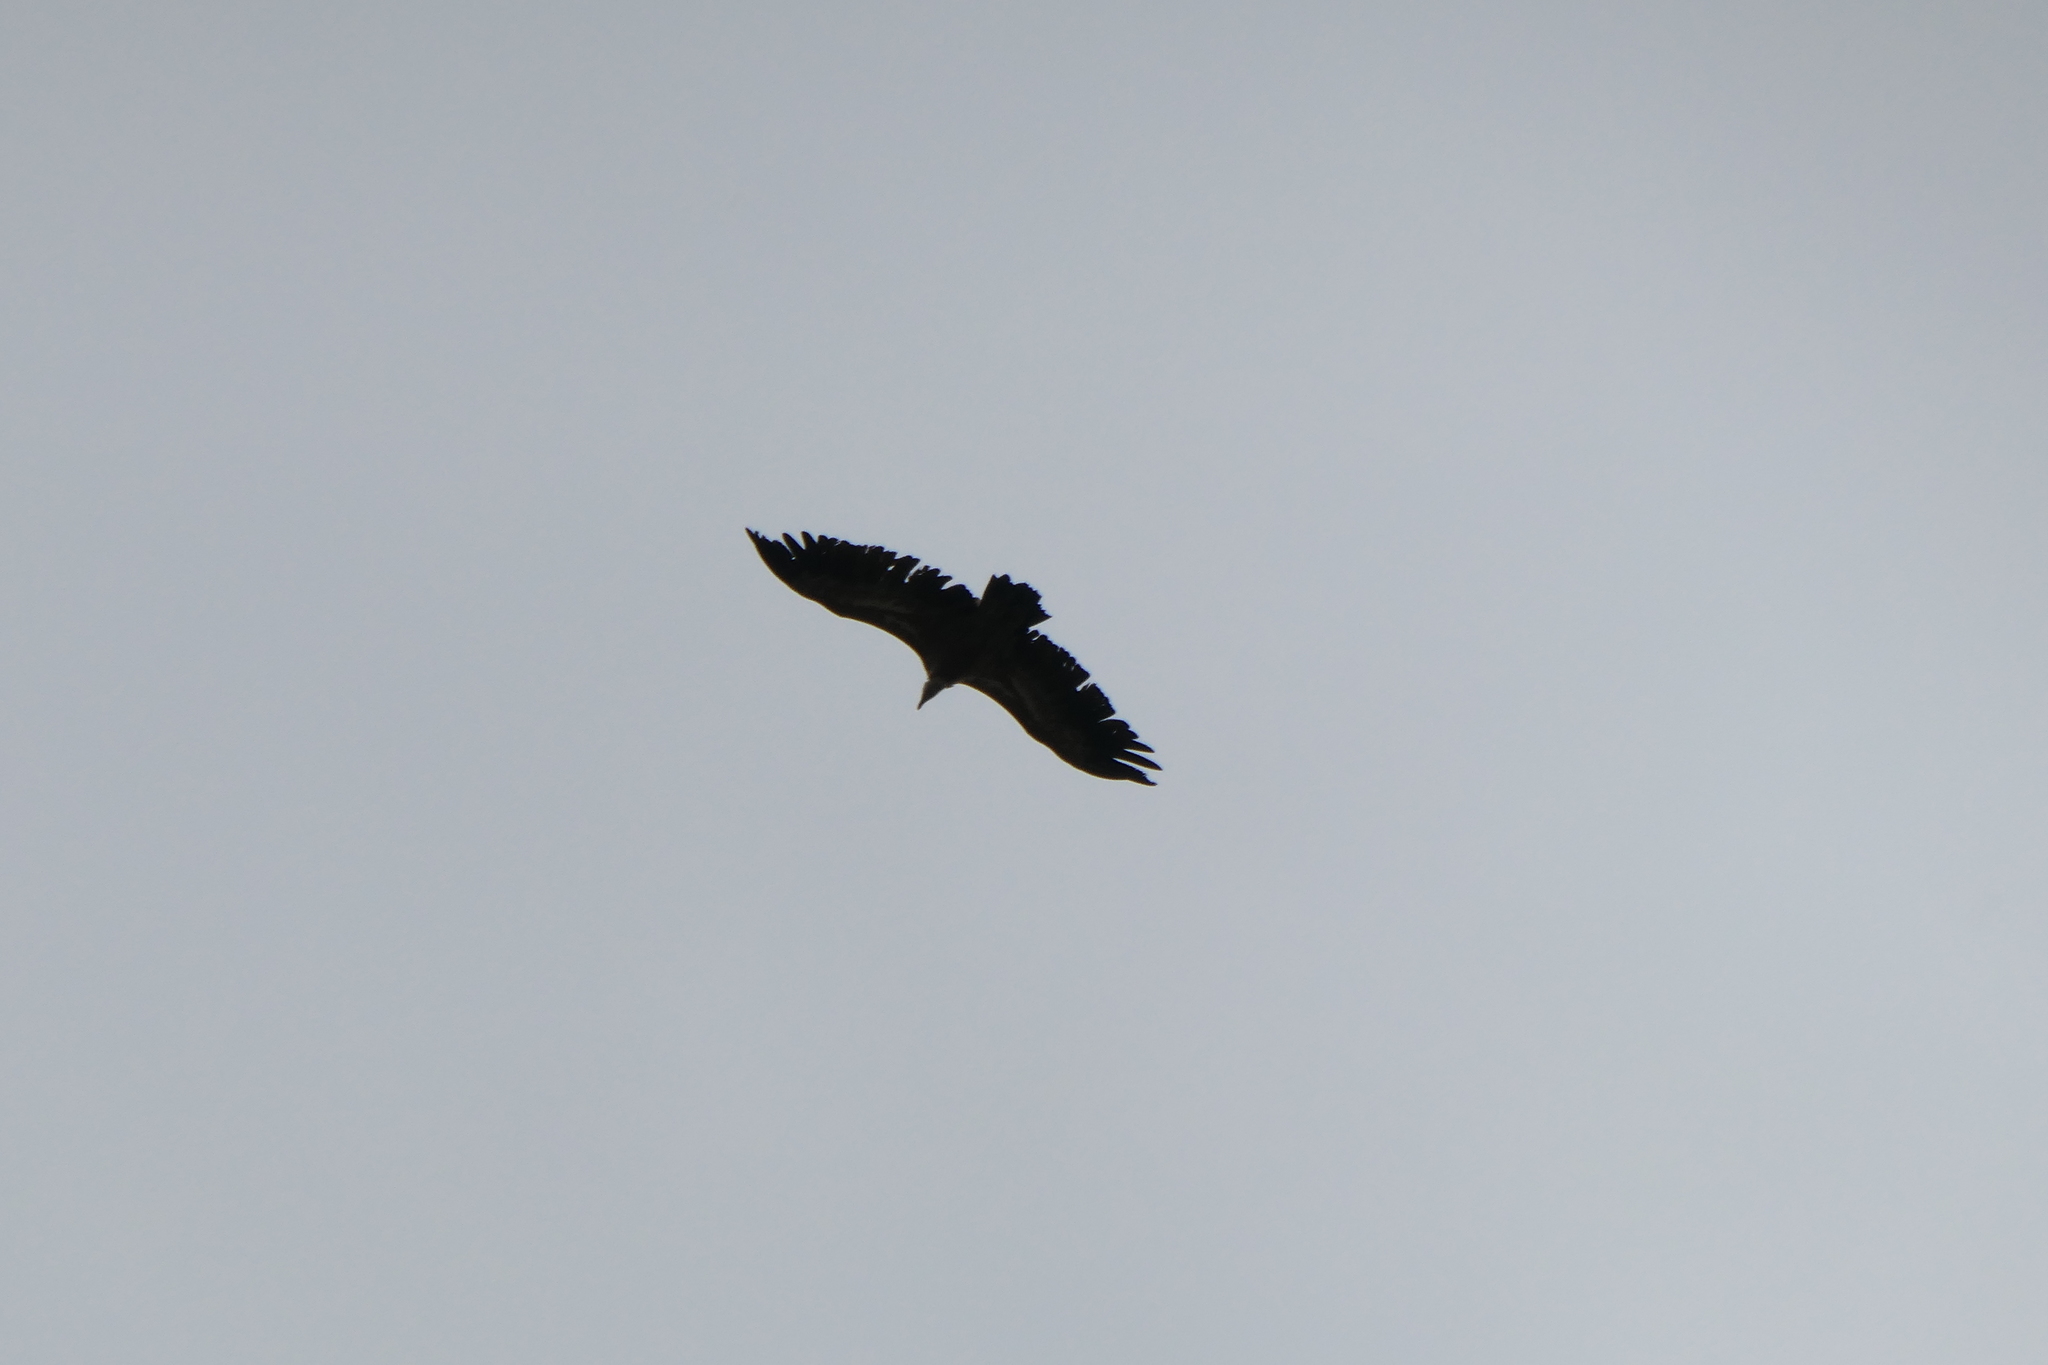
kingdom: Animalia
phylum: Chordata
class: Aves
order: Accipitriformes
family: Accipitridae
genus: Gyps
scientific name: Gyps fulvus
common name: Griffon vulture
